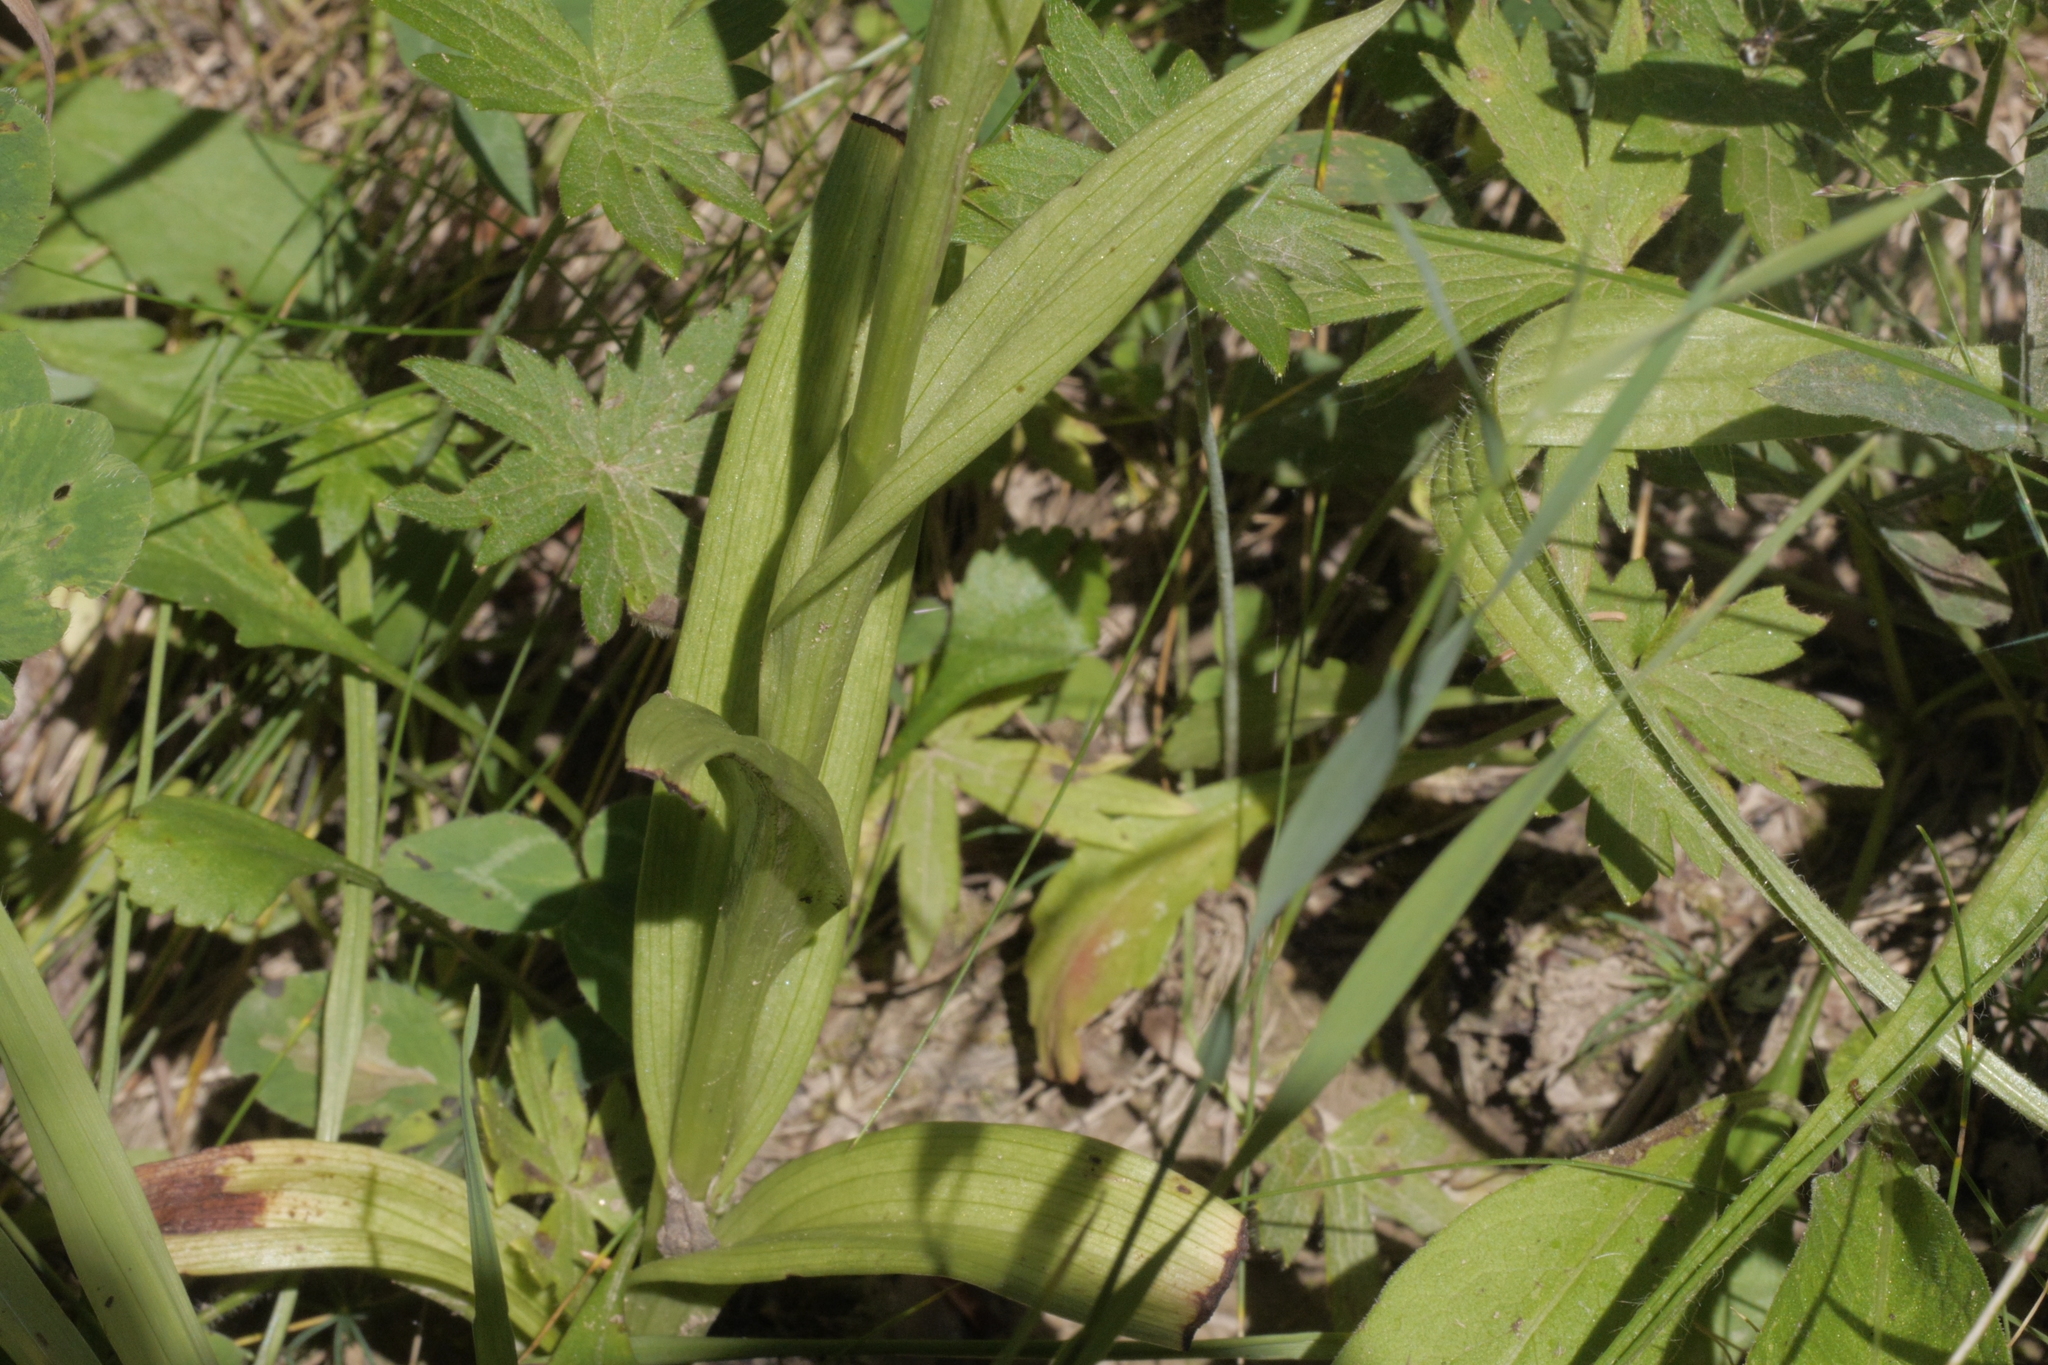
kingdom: Plantae
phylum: Tracheophyta
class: Liliopsida
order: Asparagales
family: Orchidaceae
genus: Anacamptis
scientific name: Anacamptis pyramidalis
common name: Pyramidal orchid
